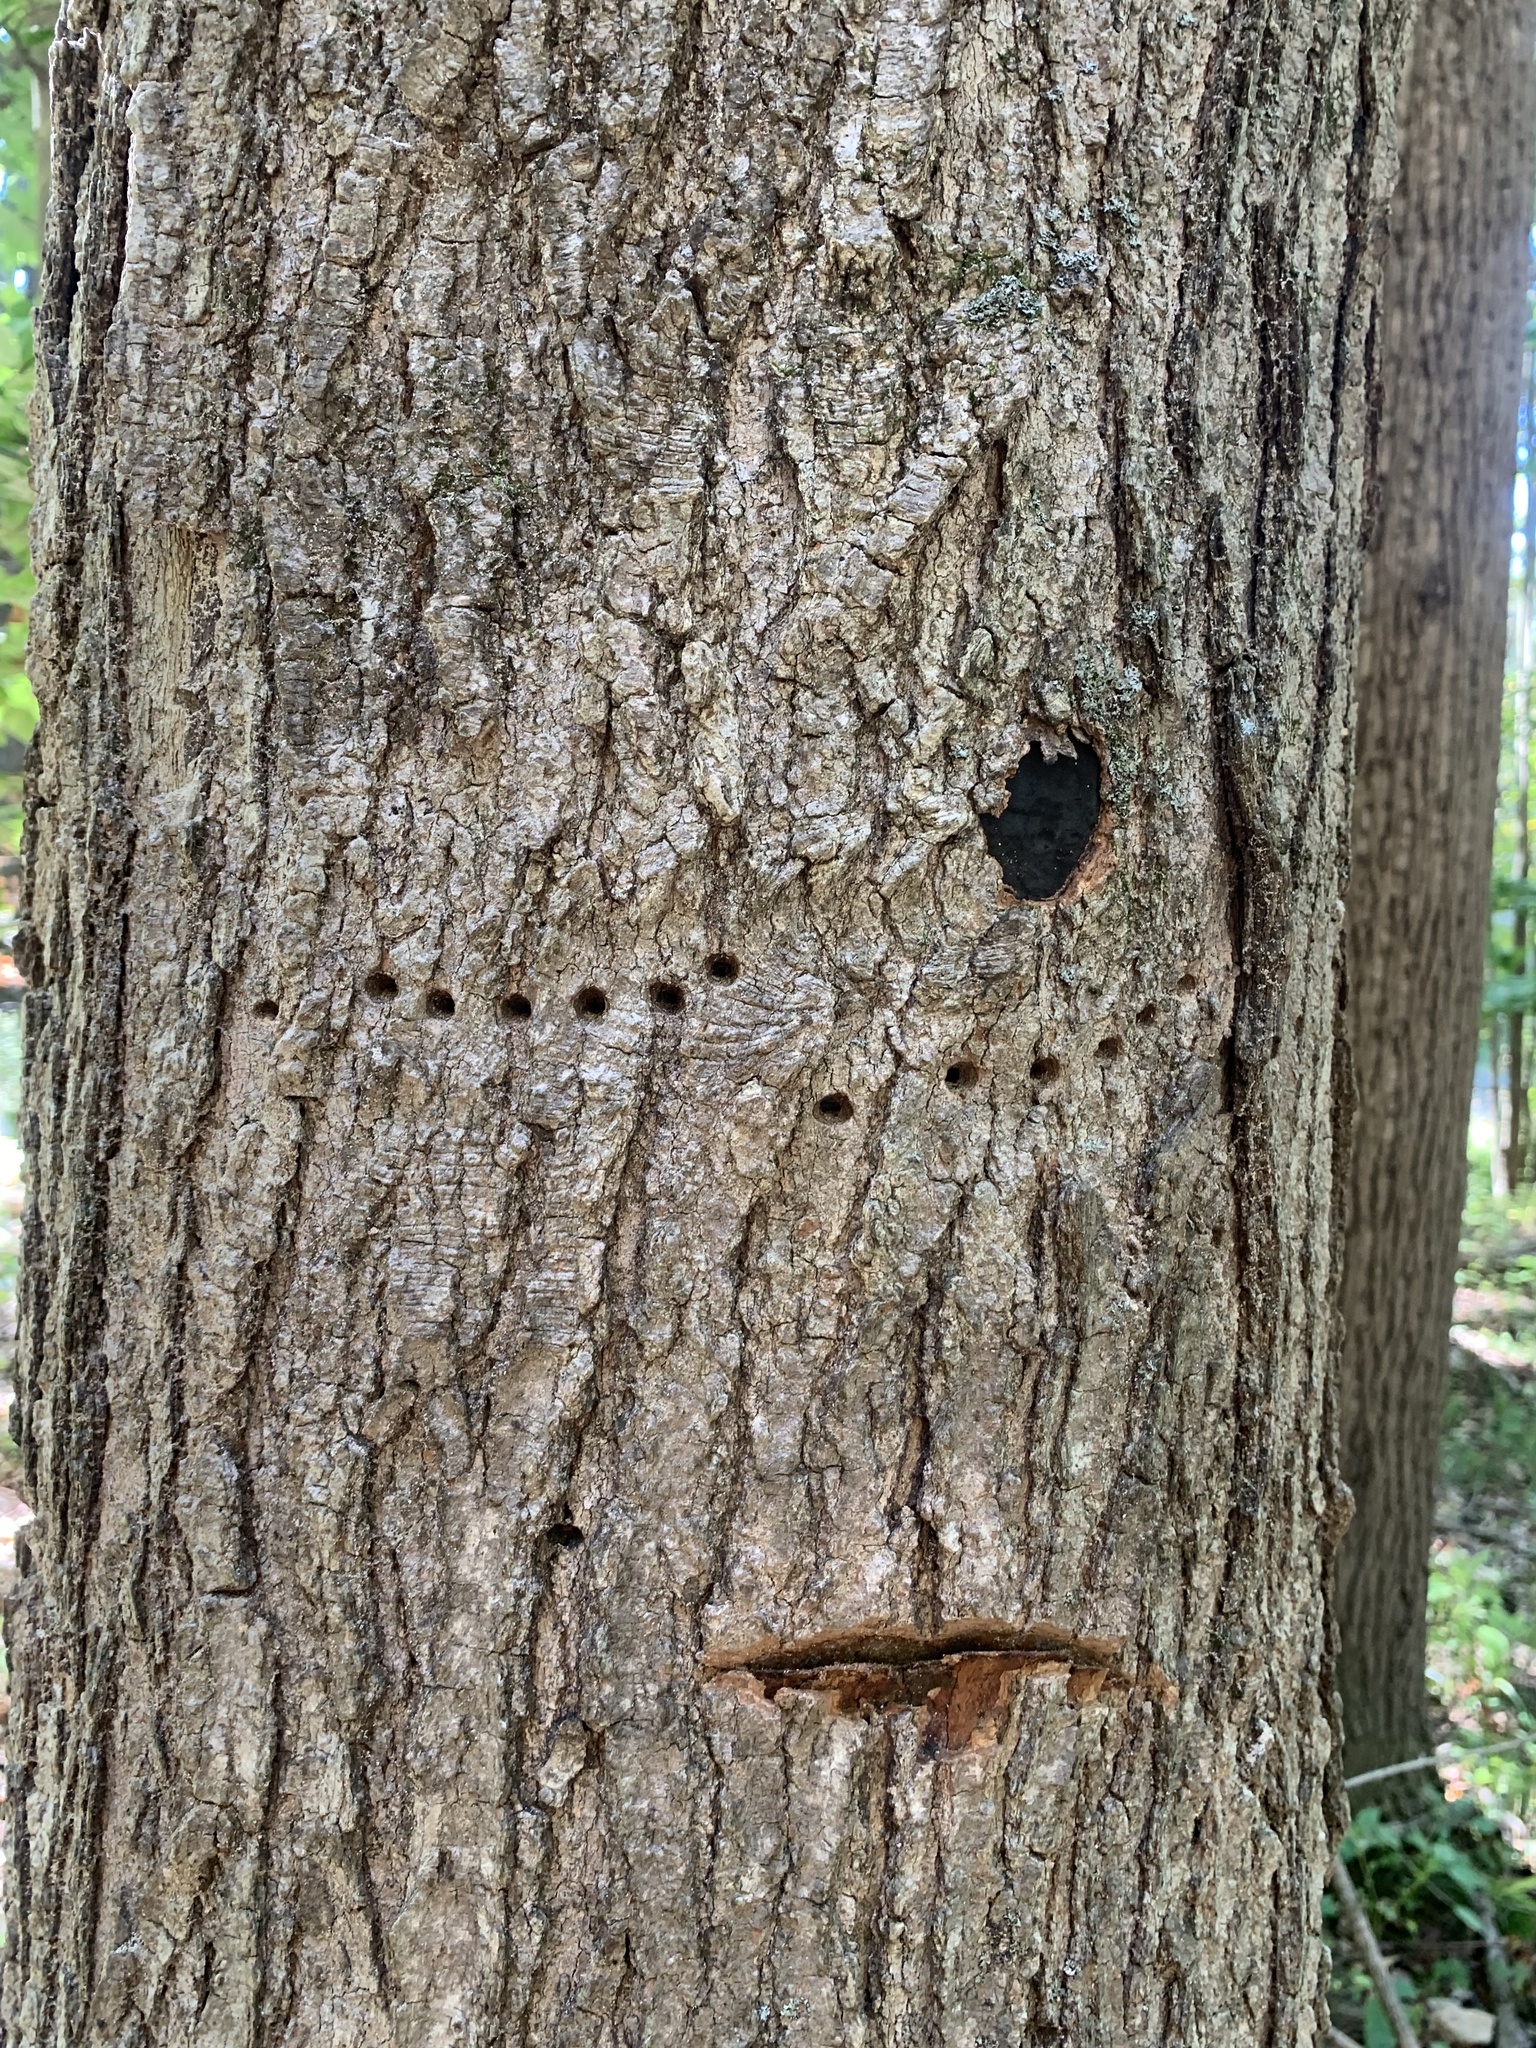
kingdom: Animalia
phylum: Chordata
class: Aves
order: Piciformes
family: Picidae
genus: Sphyrapicus
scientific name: Sphyrapicus varius
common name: Yellow-bellied sapsucker
